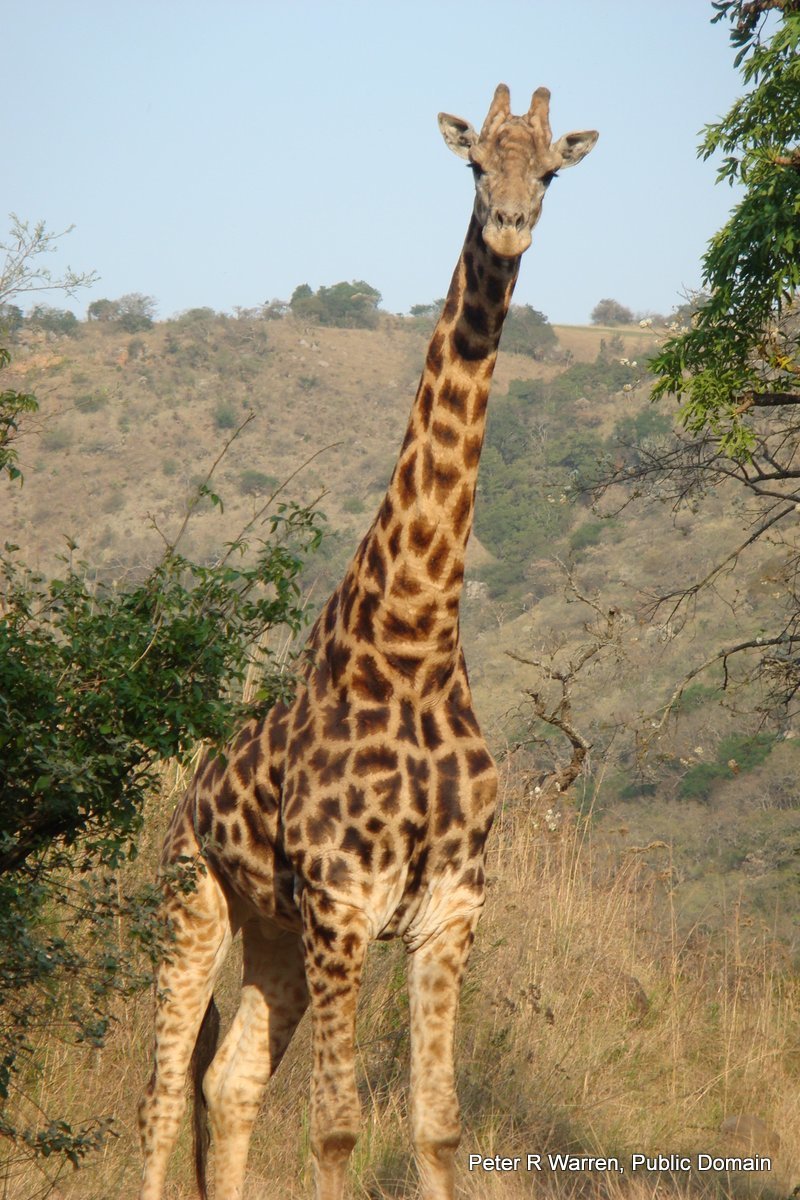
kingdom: Animalia
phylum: Chordata
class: Mammalia
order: Artiodactyla
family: Giraffidae
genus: Giraffa
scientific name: Giraffa giraffa
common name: Southern giraffe
